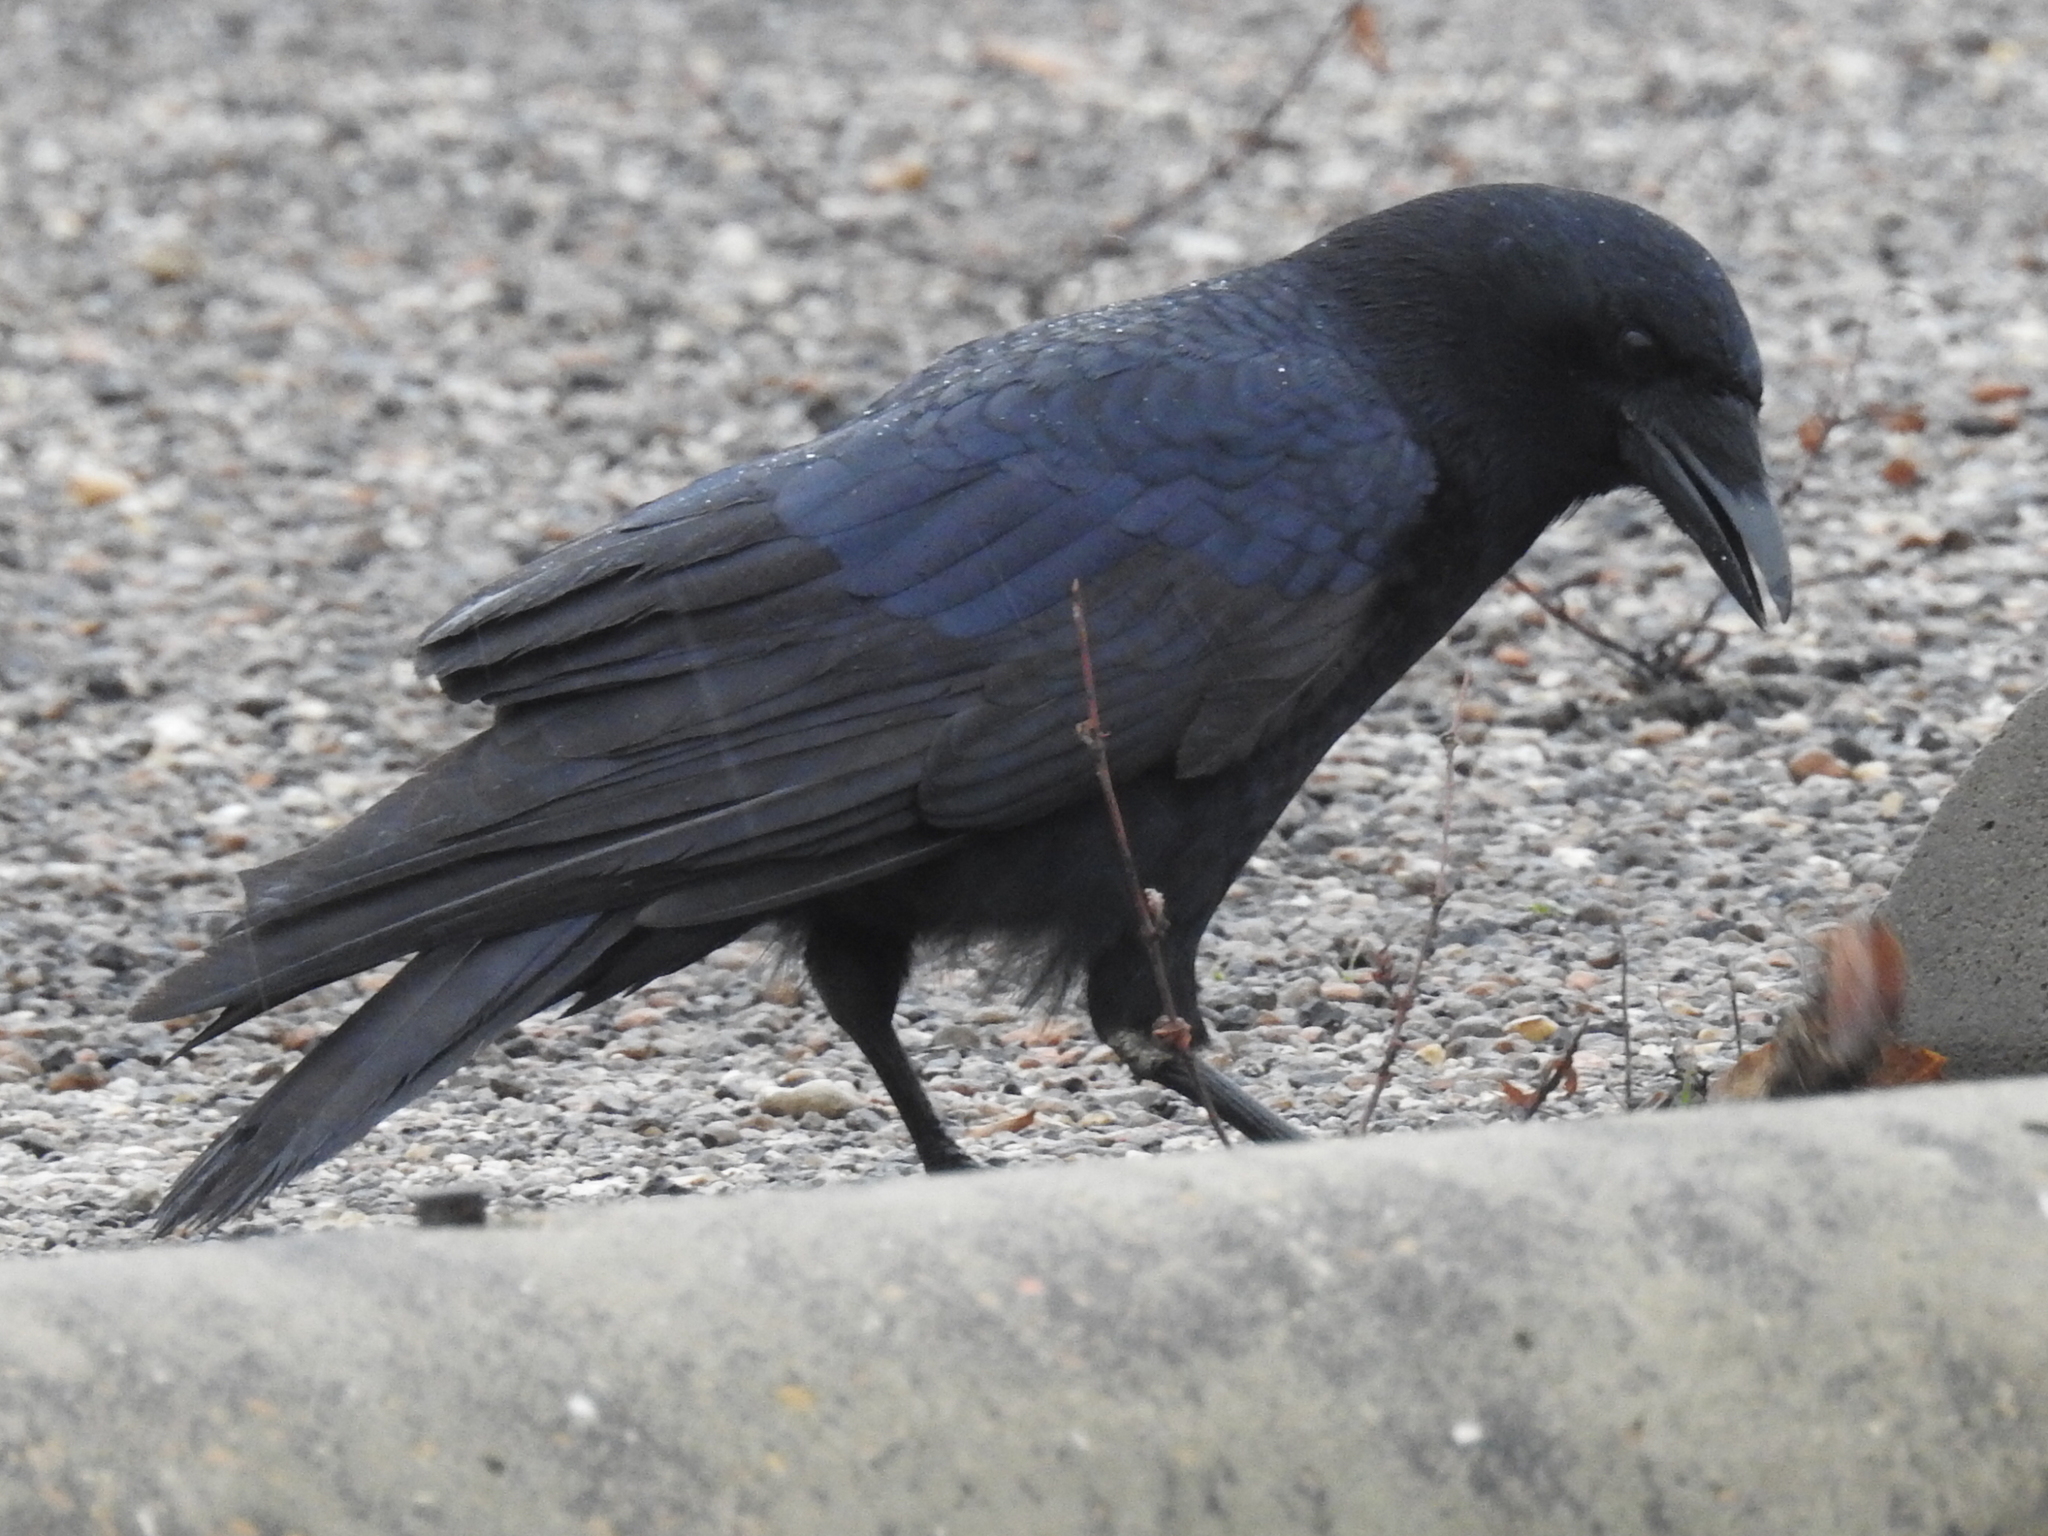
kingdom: Animalia
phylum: Chordata
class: Aves
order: Passeriformes
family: Corvidae
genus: Corvus
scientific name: Corvus brachyrhynchos
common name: American crow
